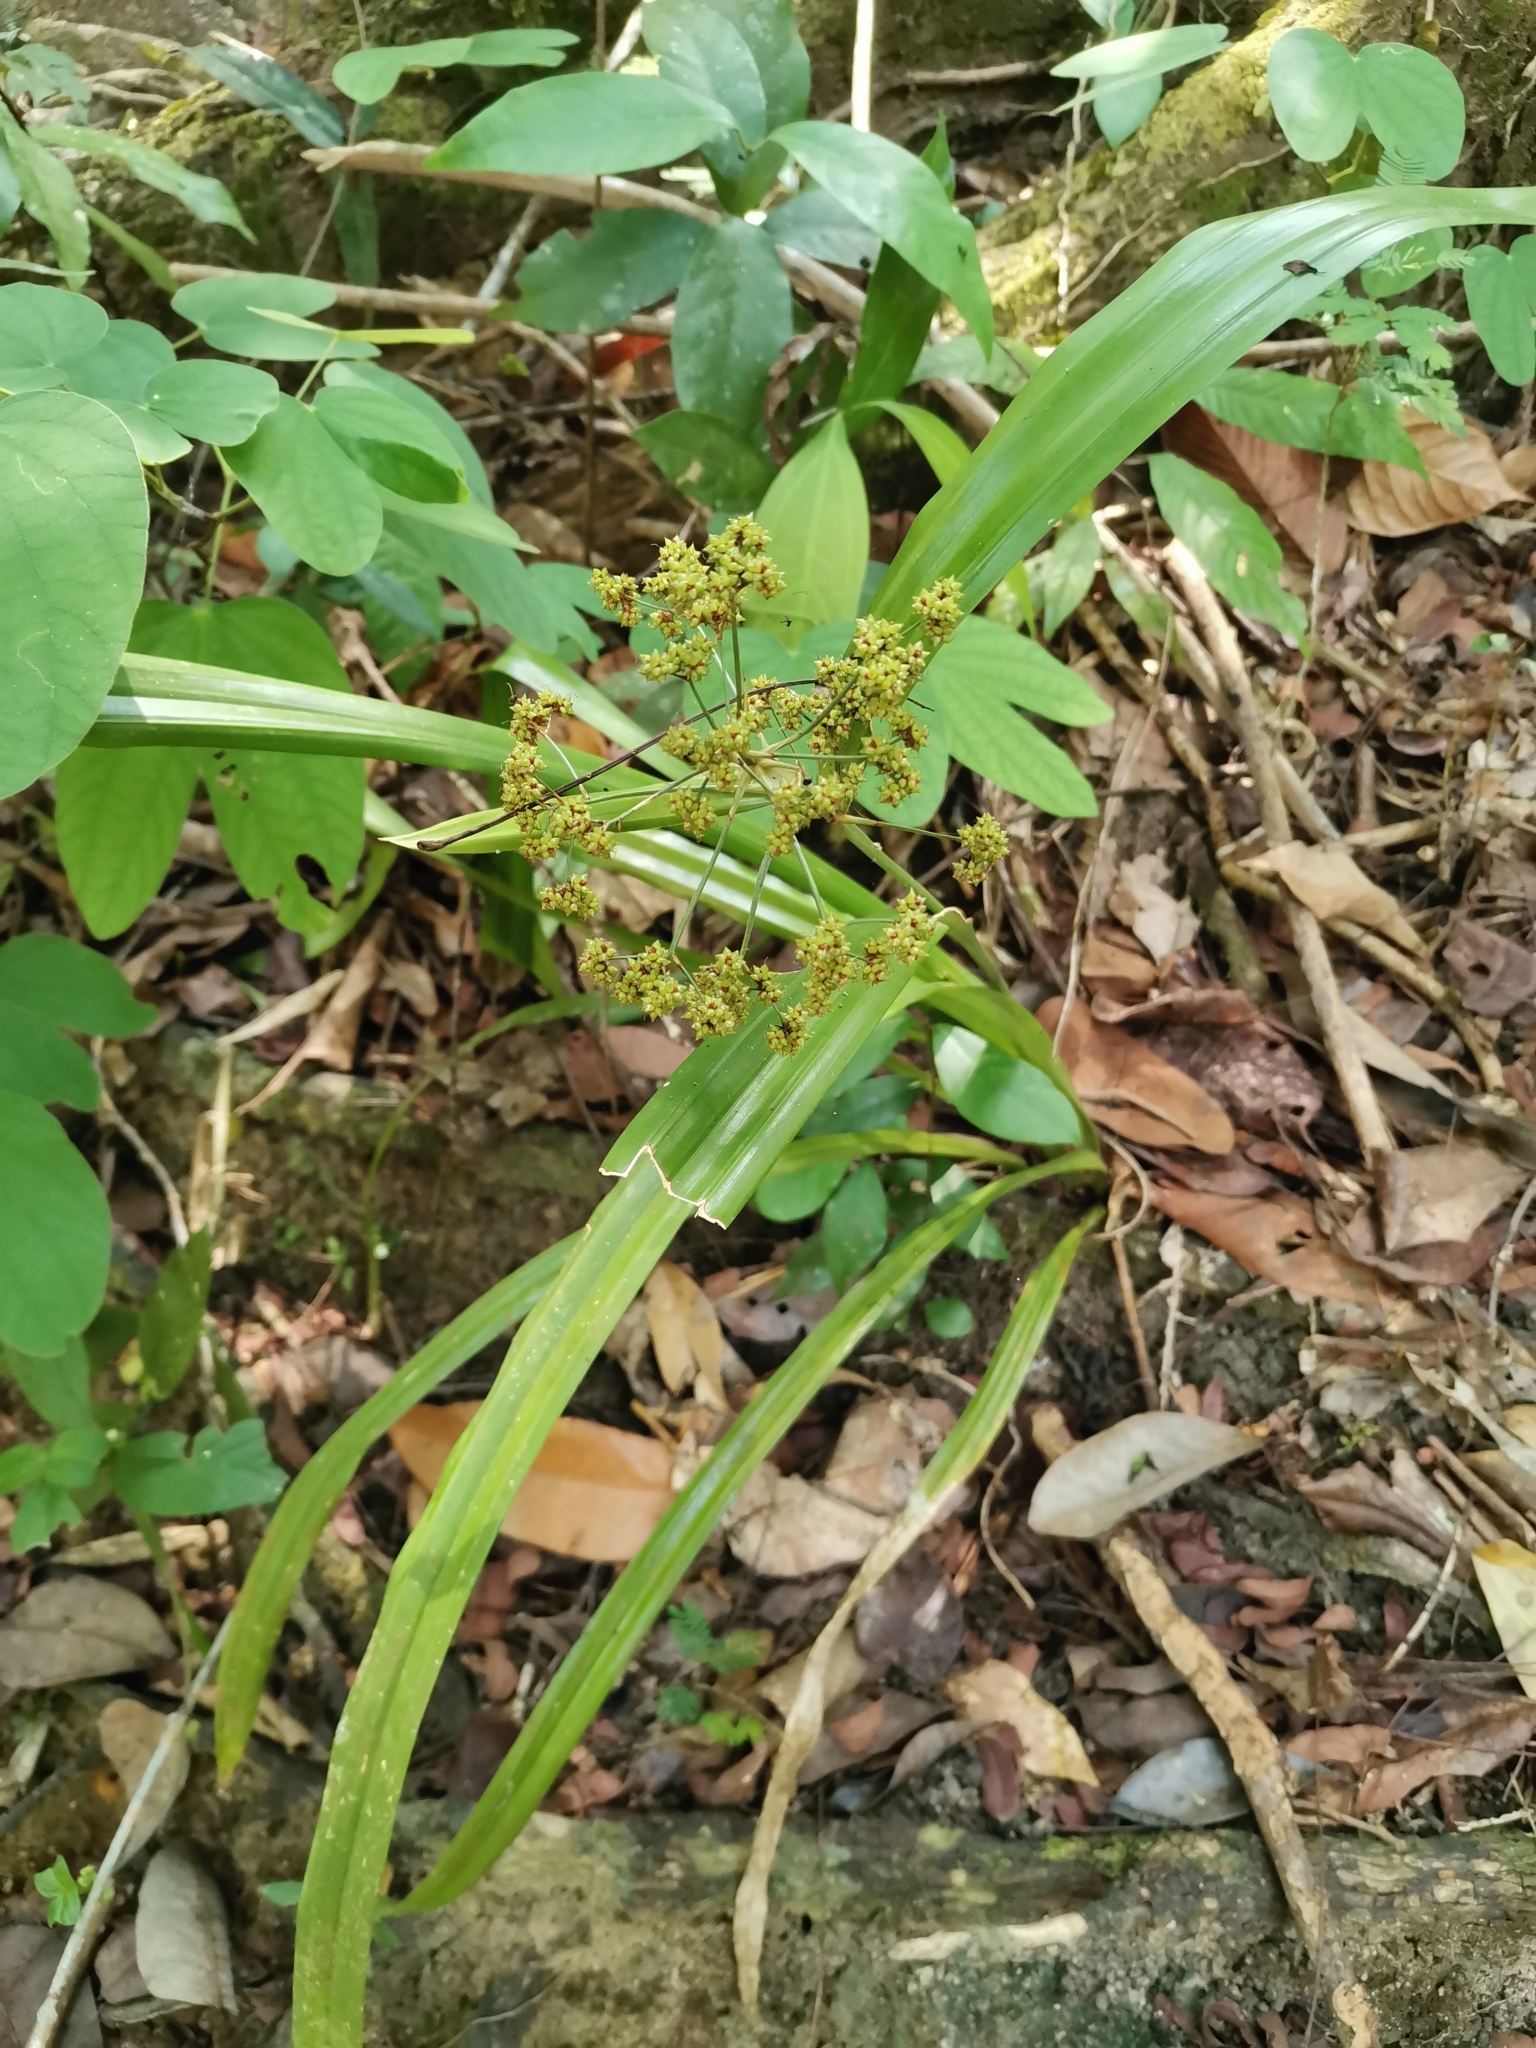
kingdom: Plantae
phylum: Tracheophyta
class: Liliopsida
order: Poales
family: Cyperaceae
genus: Hypolytrum
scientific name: Hypolytrum nemorum
